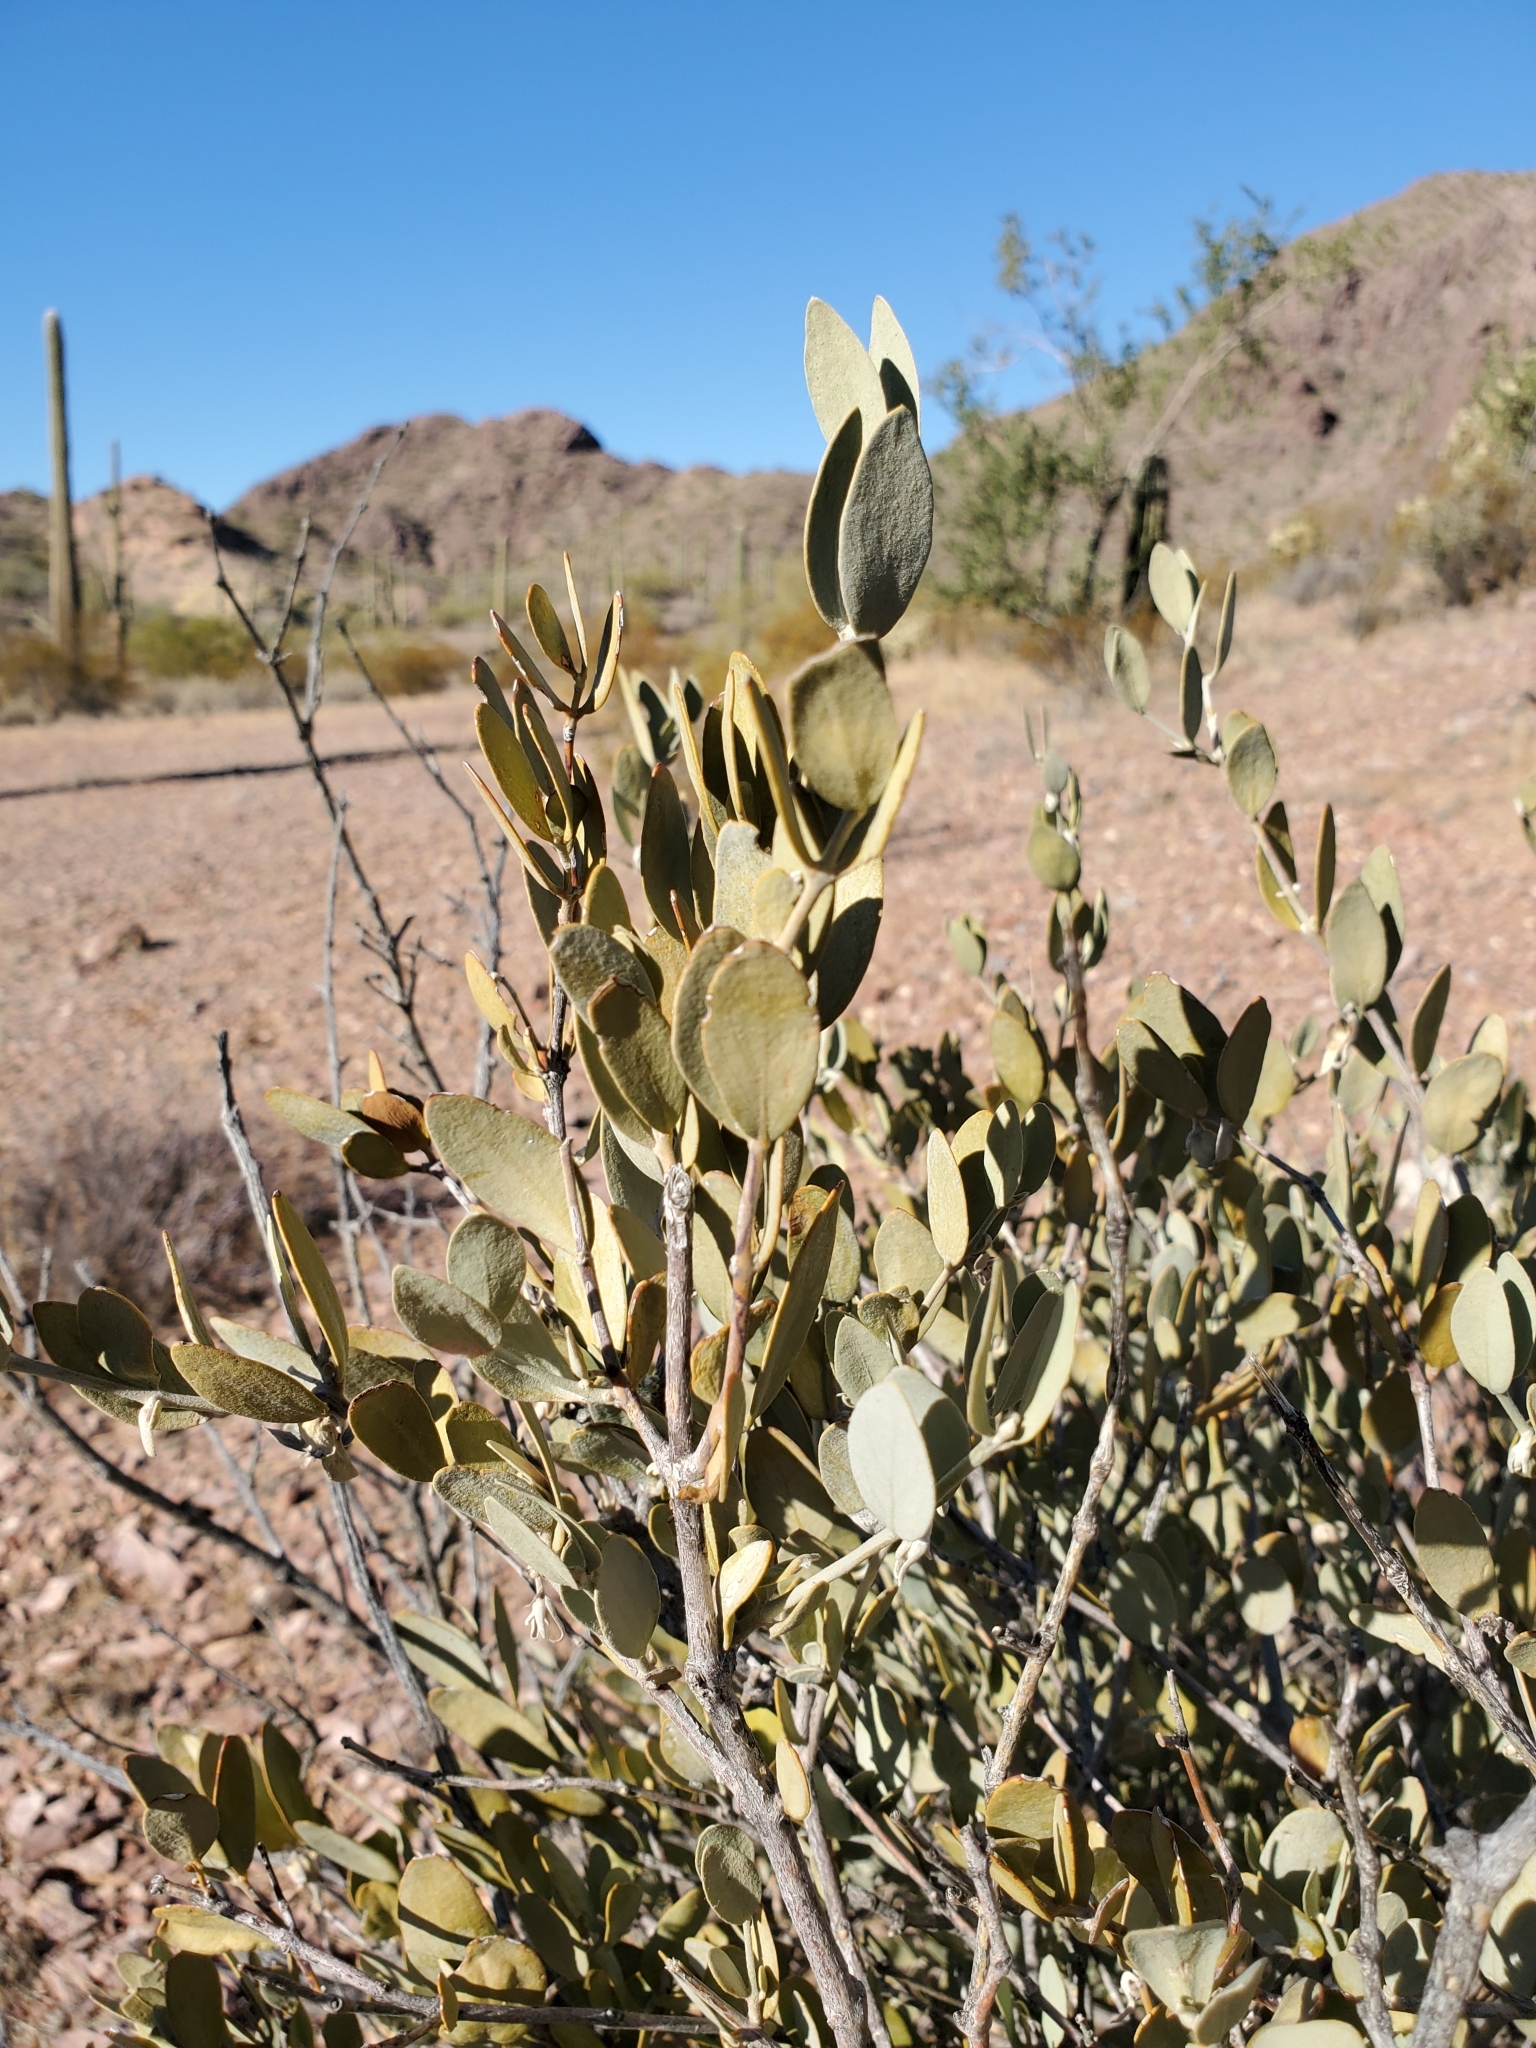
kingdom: Plantae
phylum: Tracheophyta
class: Magnoliopsida
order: Caryophyllales
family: Simmondsiaceae
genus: Simmondsia
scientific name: Simmondsia chinensis
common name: Jojoba
